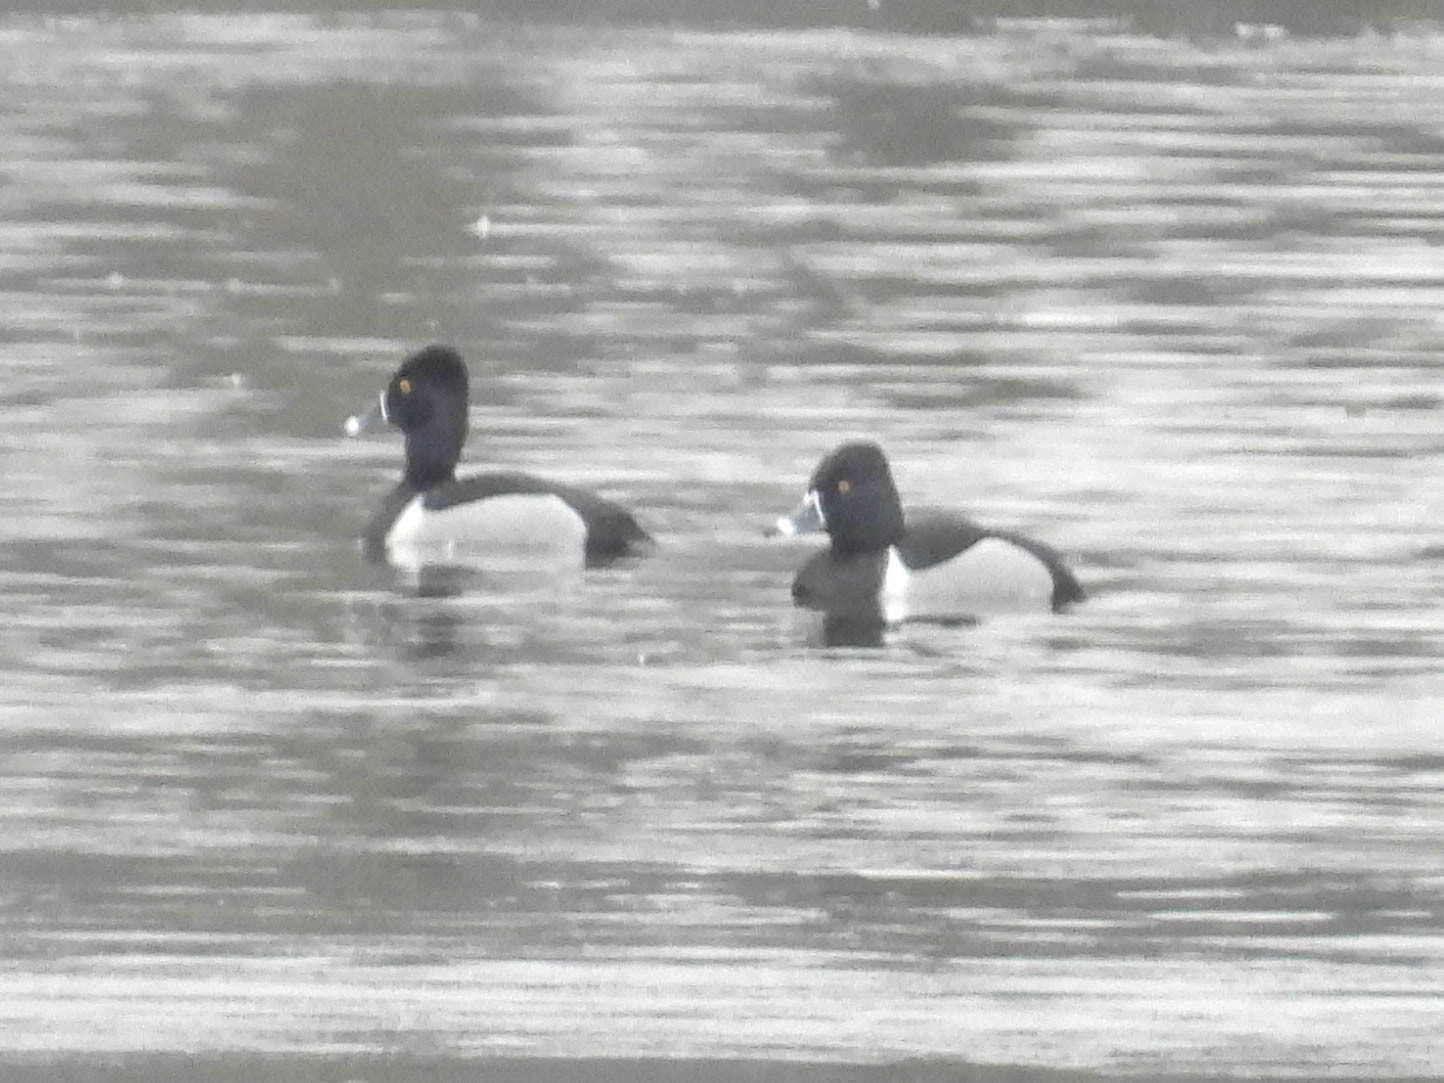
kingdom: Animalia
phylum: Chordata
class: Aves
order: Anseriformes
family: Anatidae
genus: Aythya
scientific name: Aythya collaris
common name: Ring-necked duck
